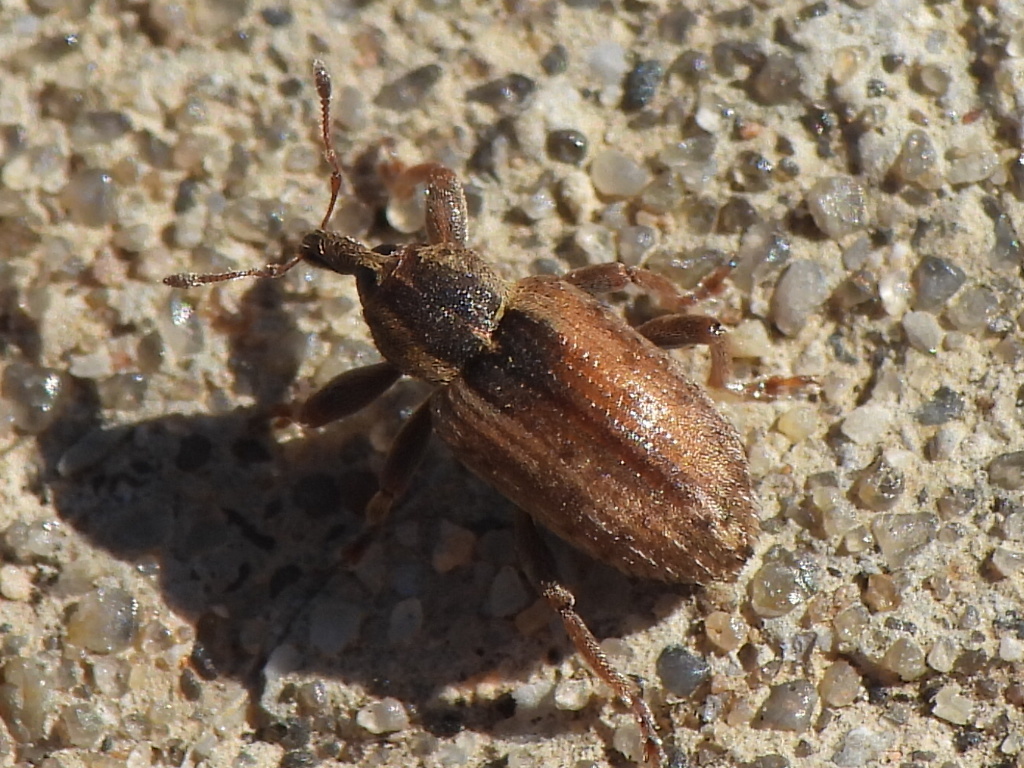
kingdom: Animalia
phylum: Arthropoda
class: Insecta
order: Coleoptera
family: Curculionidae
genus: Hypera
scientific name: Hypera postica
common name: Weevil
